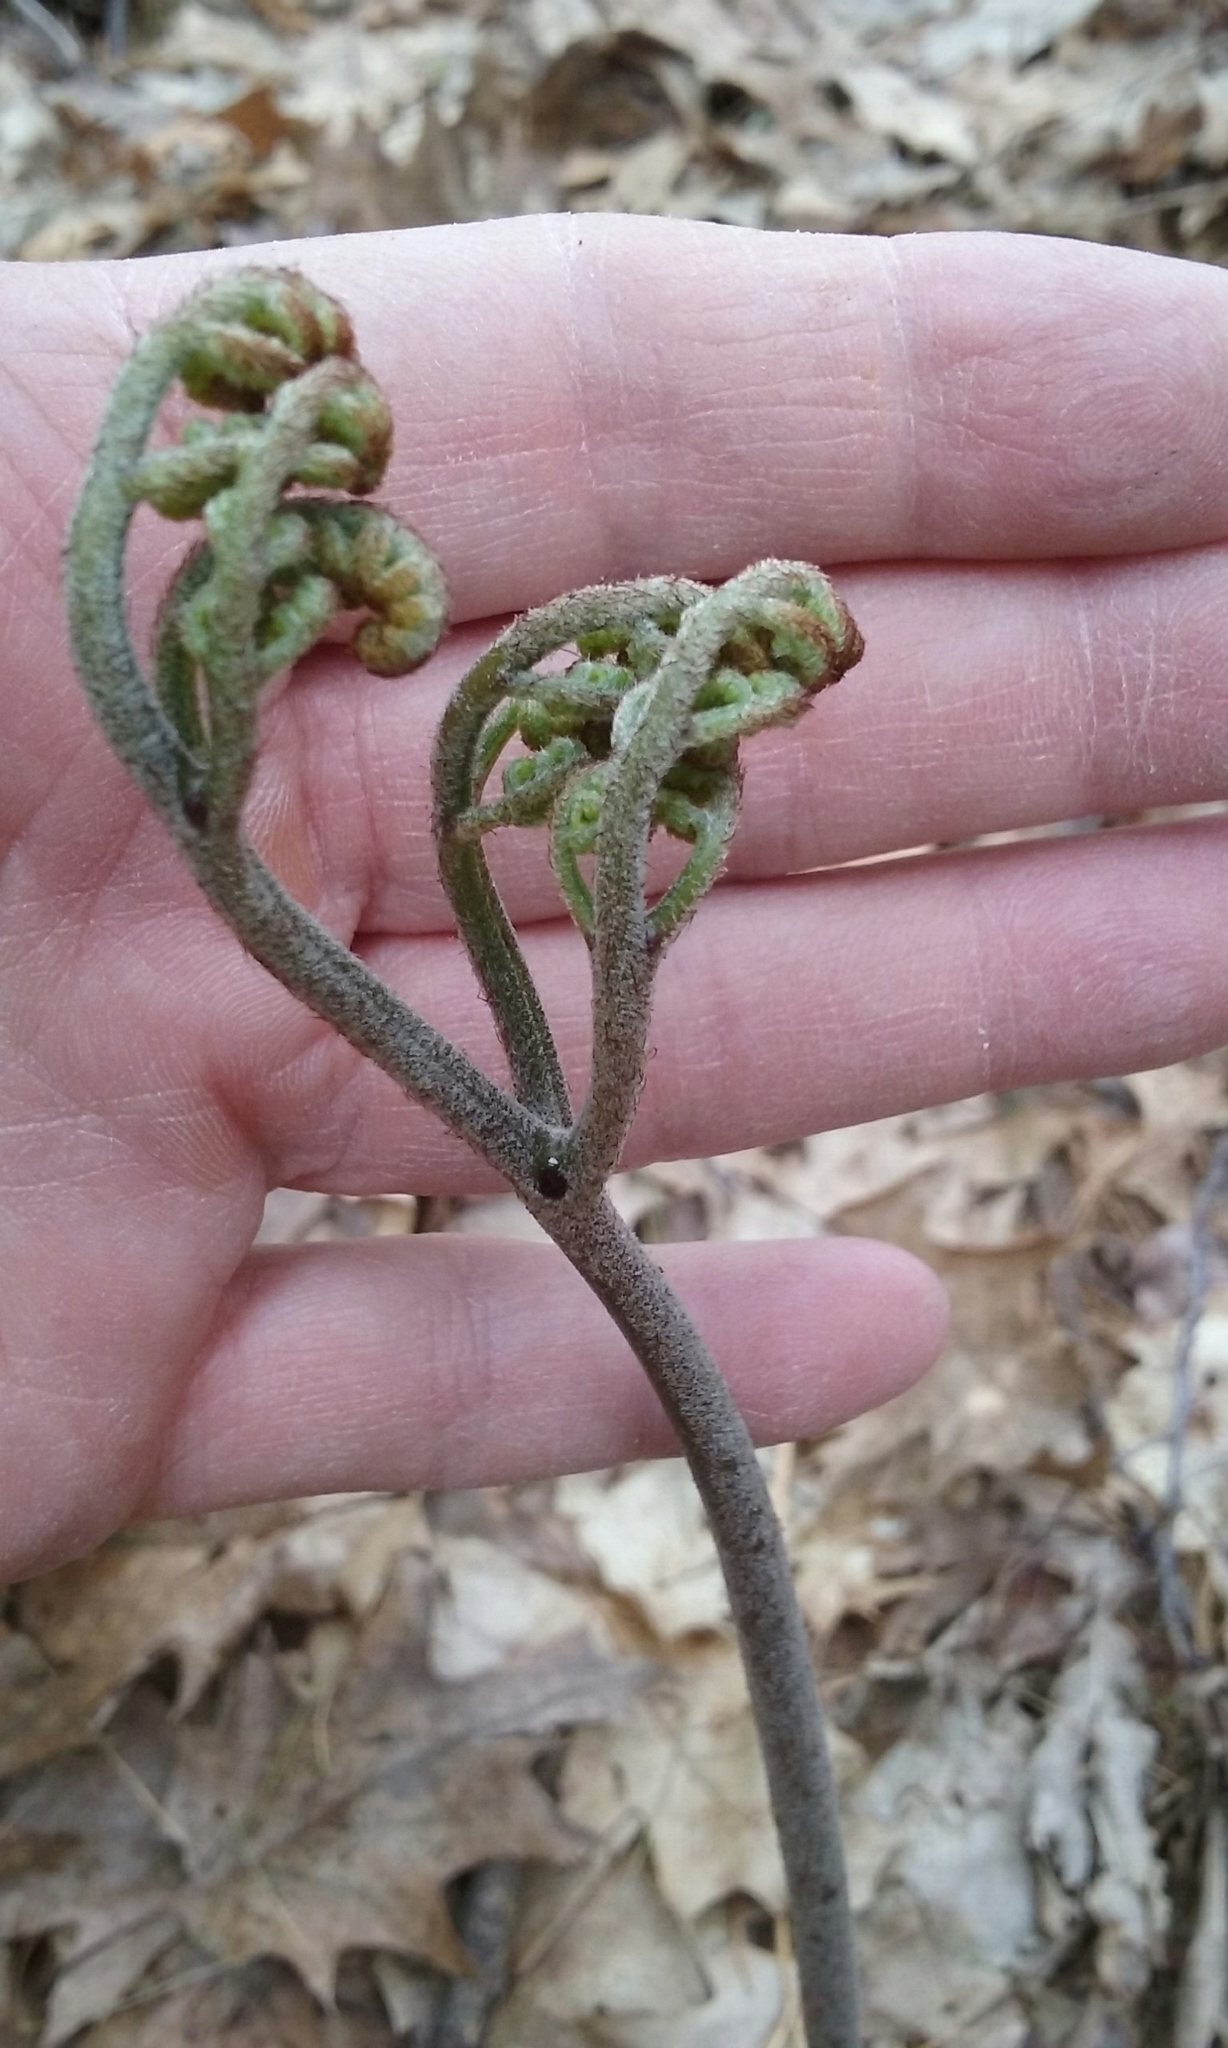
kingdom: Plantae
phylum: Tracheophyta
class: Polypodiopsida
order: Polypodiales
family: Dennstaedtiaceae
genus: Pteridium
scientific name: Pteridium aquilinum
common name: Bracken
